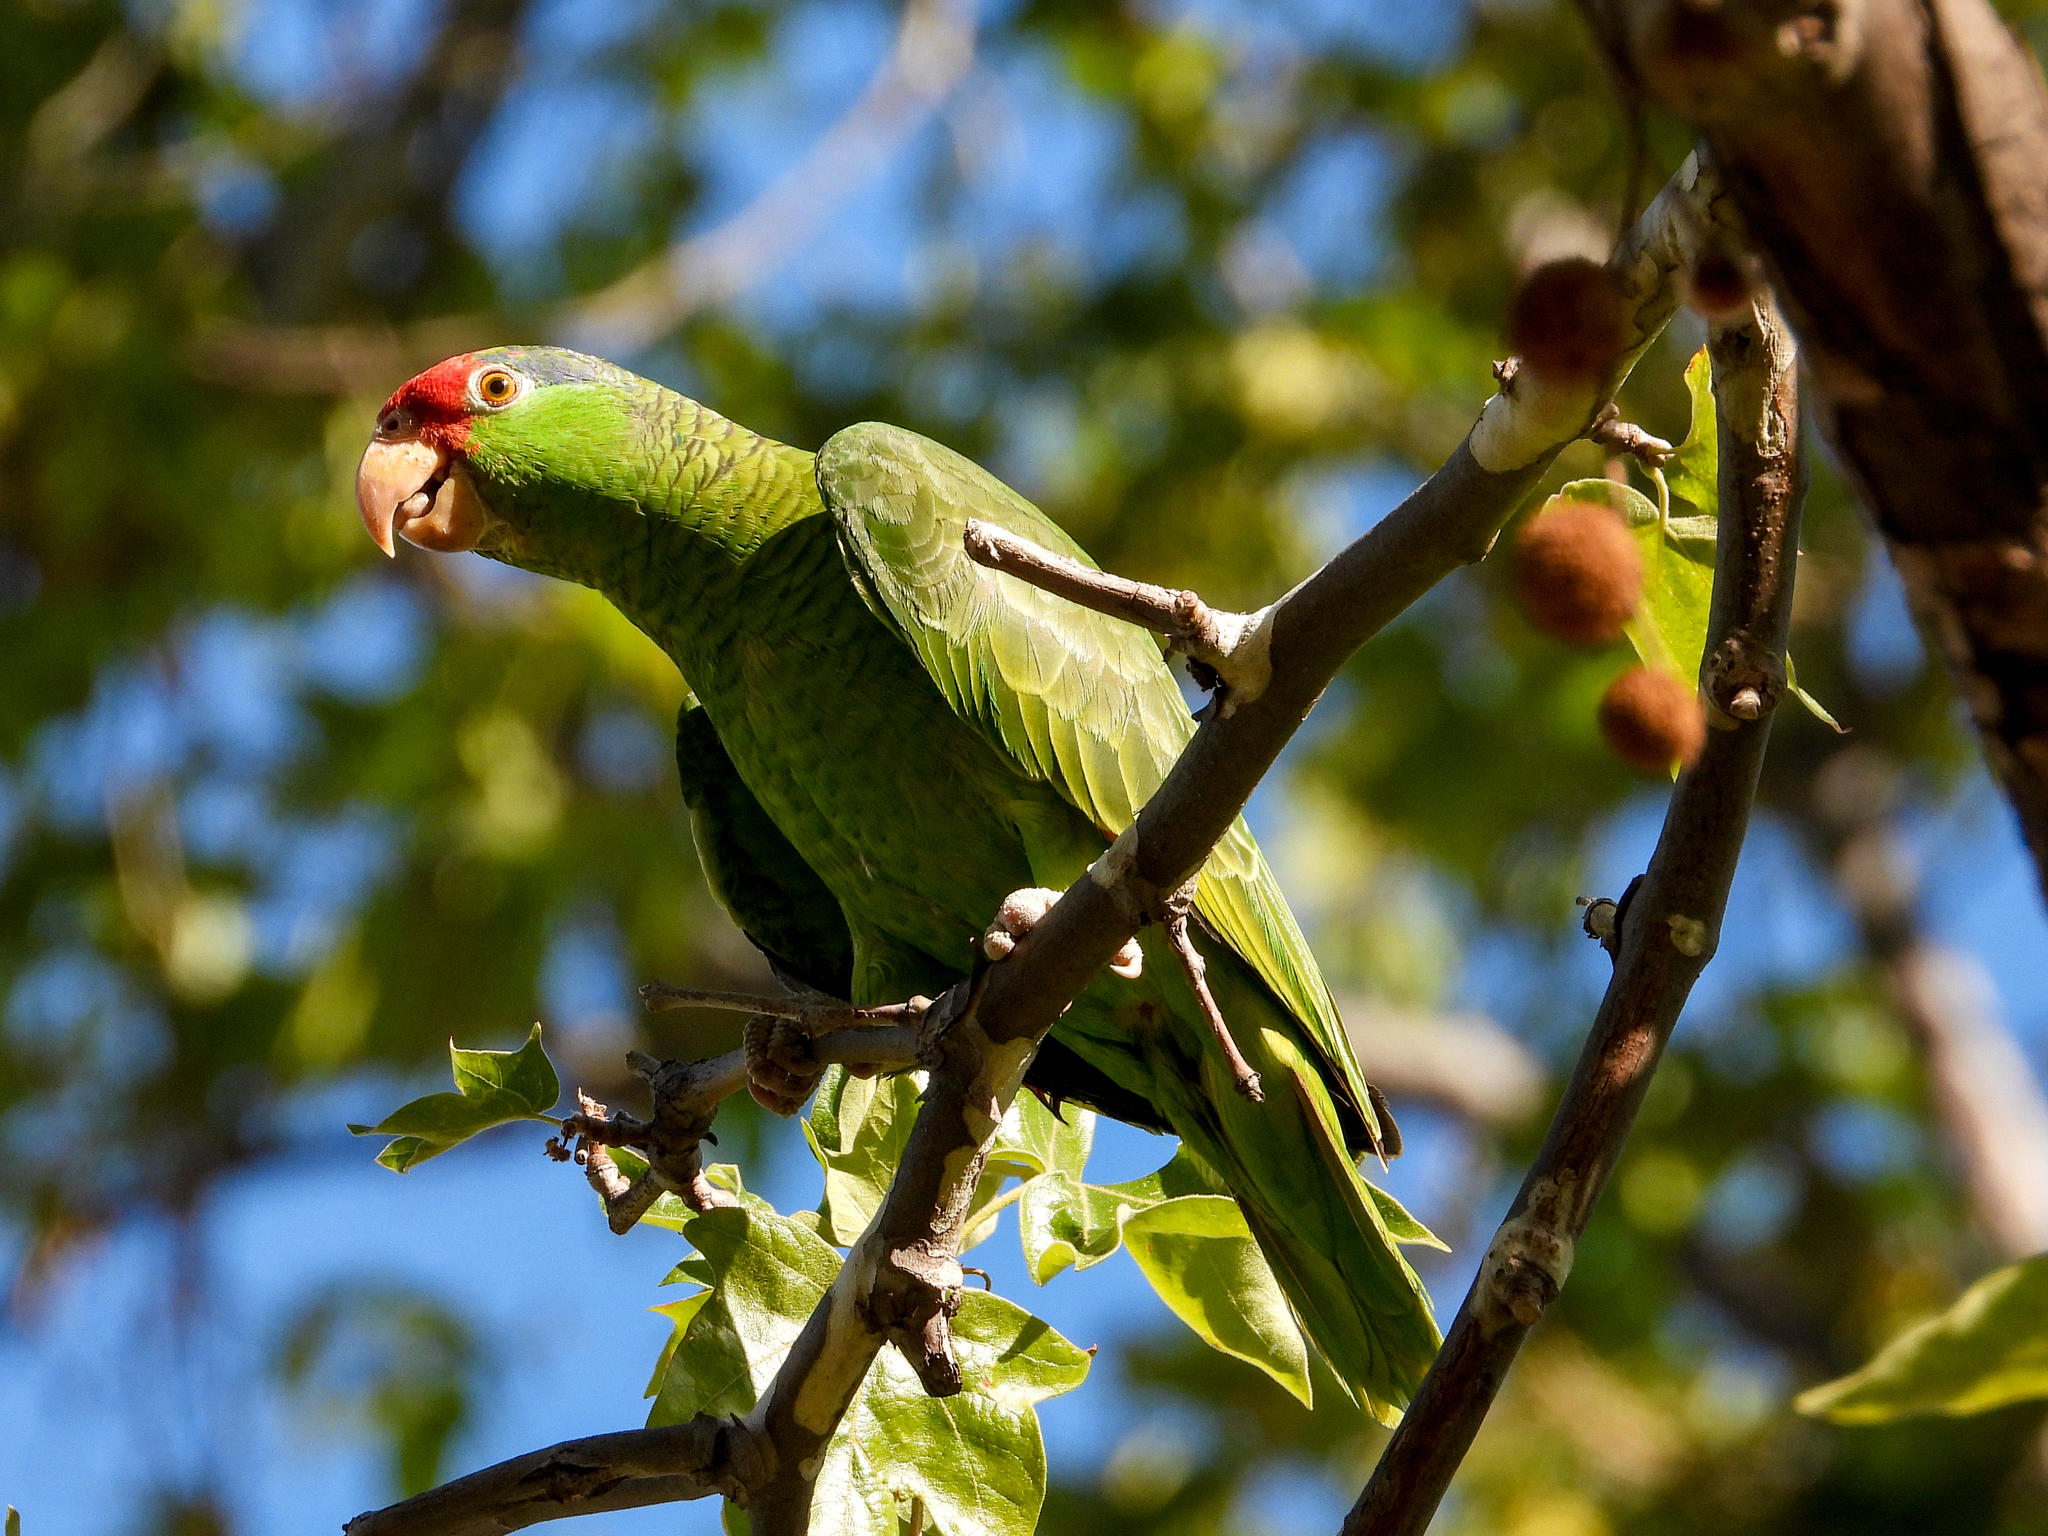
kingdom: Animalia
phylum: Chordata
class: Aves
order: Psittaciformes
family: Psittacidae
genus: Amazona
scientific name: Amazona viridigenalis
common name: Red-crowned amazon
